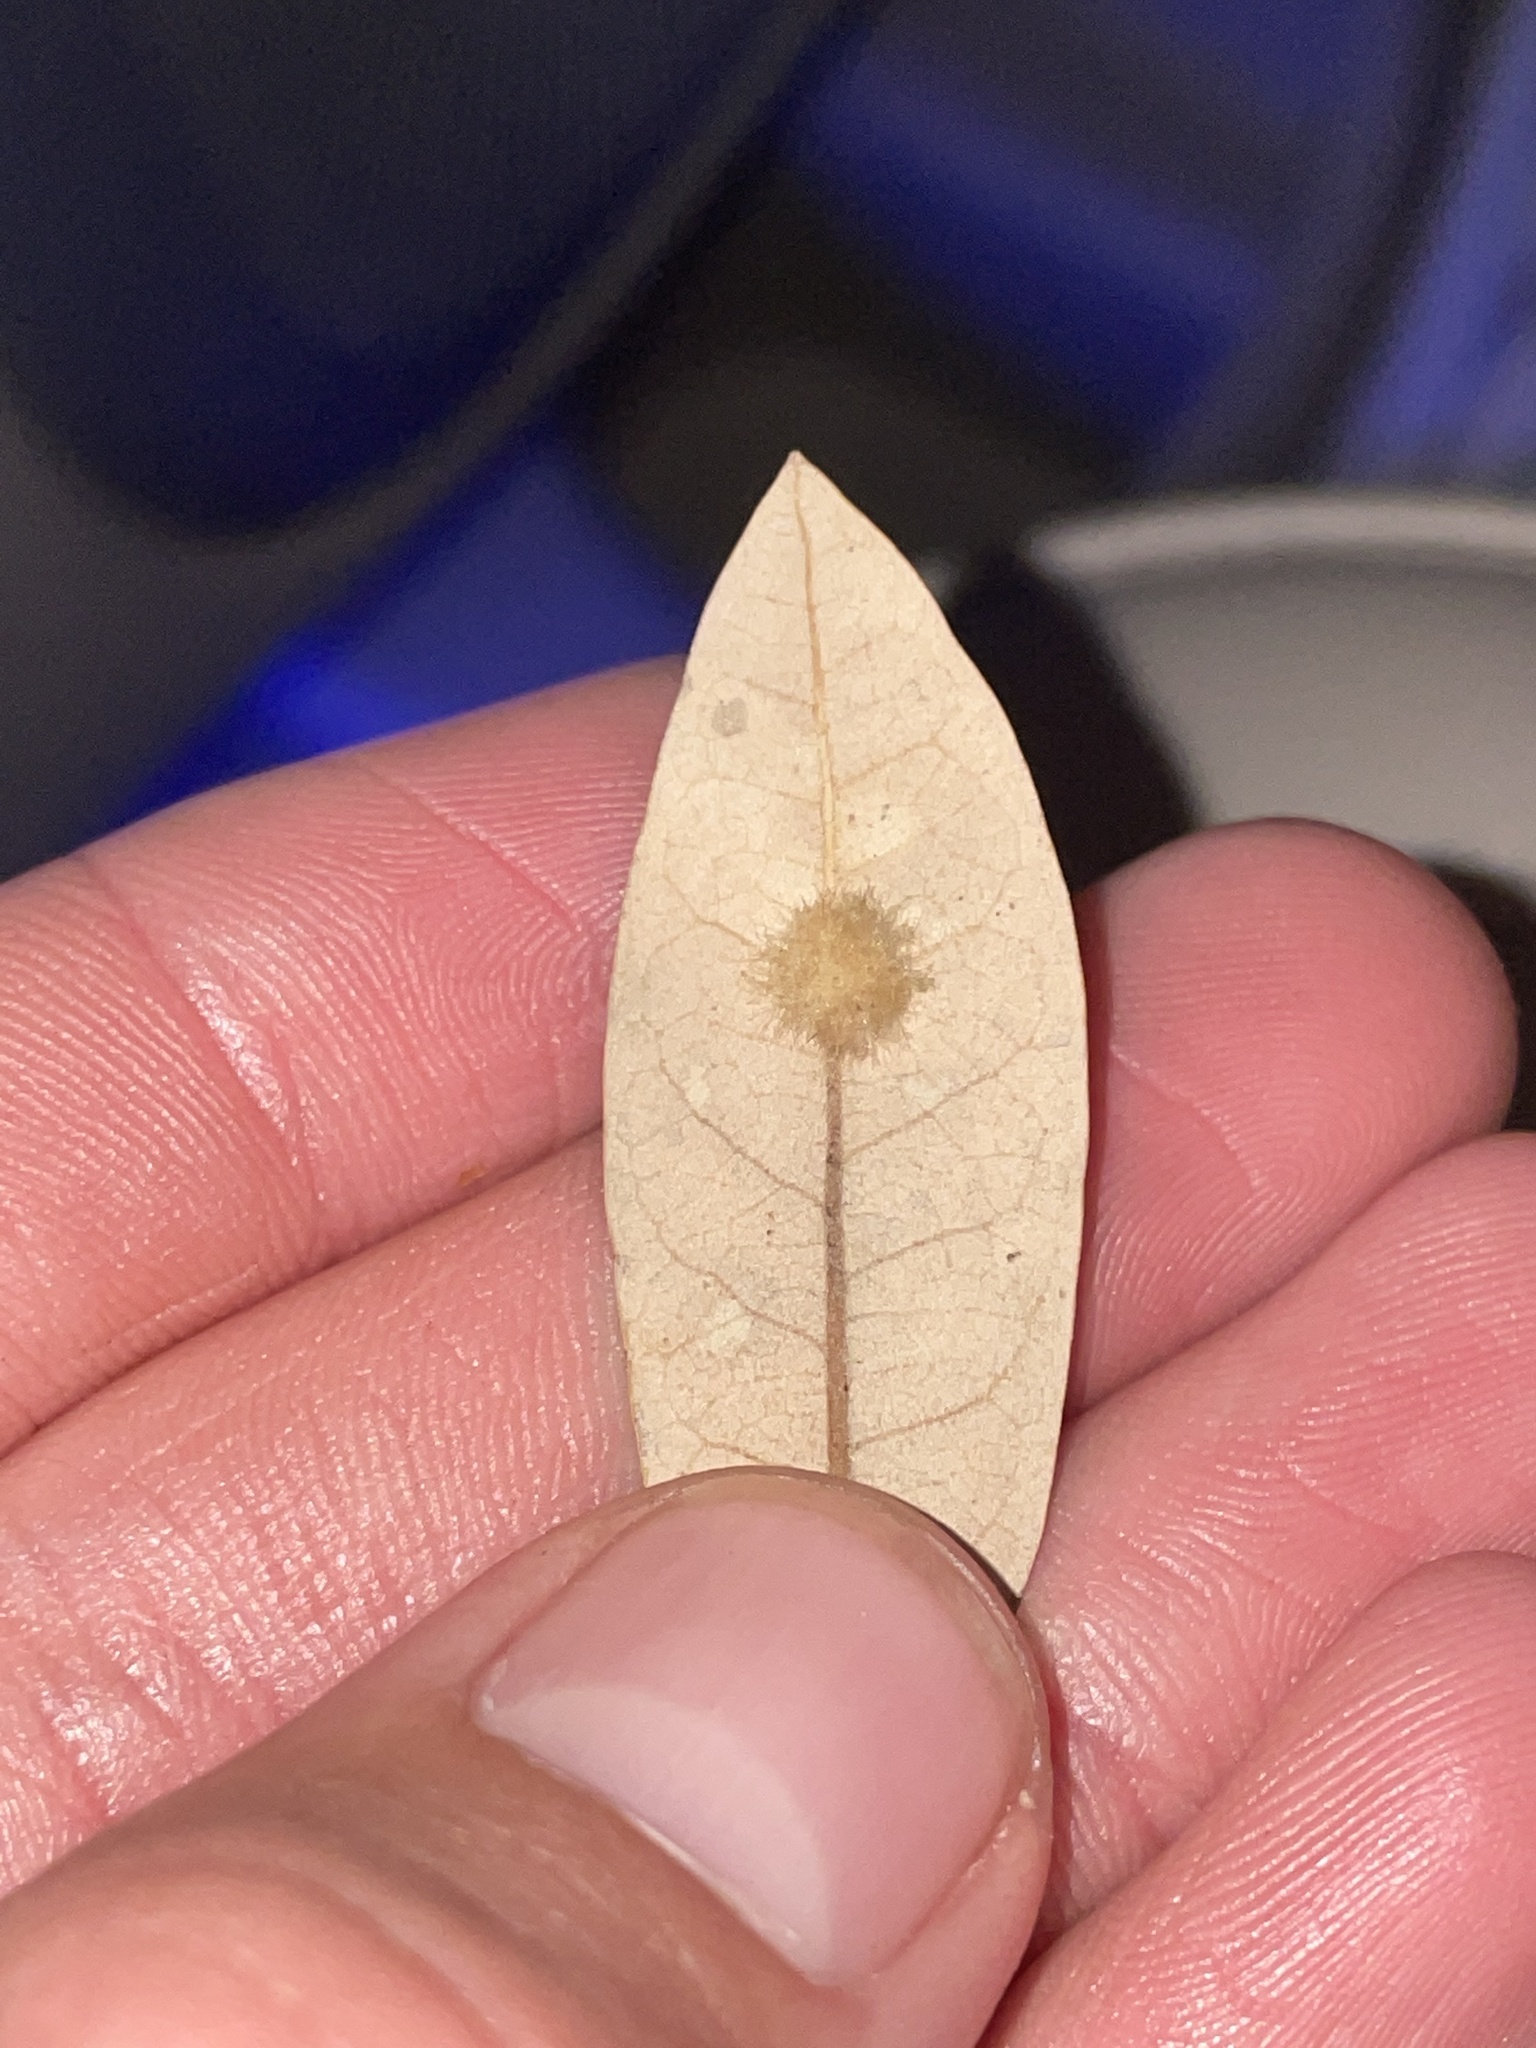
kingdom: Animalia
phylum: Arthropoda
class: Insecta
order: Hymenoptera
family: Cynipidae
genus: Andricus
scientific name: Andricus Druon quercuslanigerum
